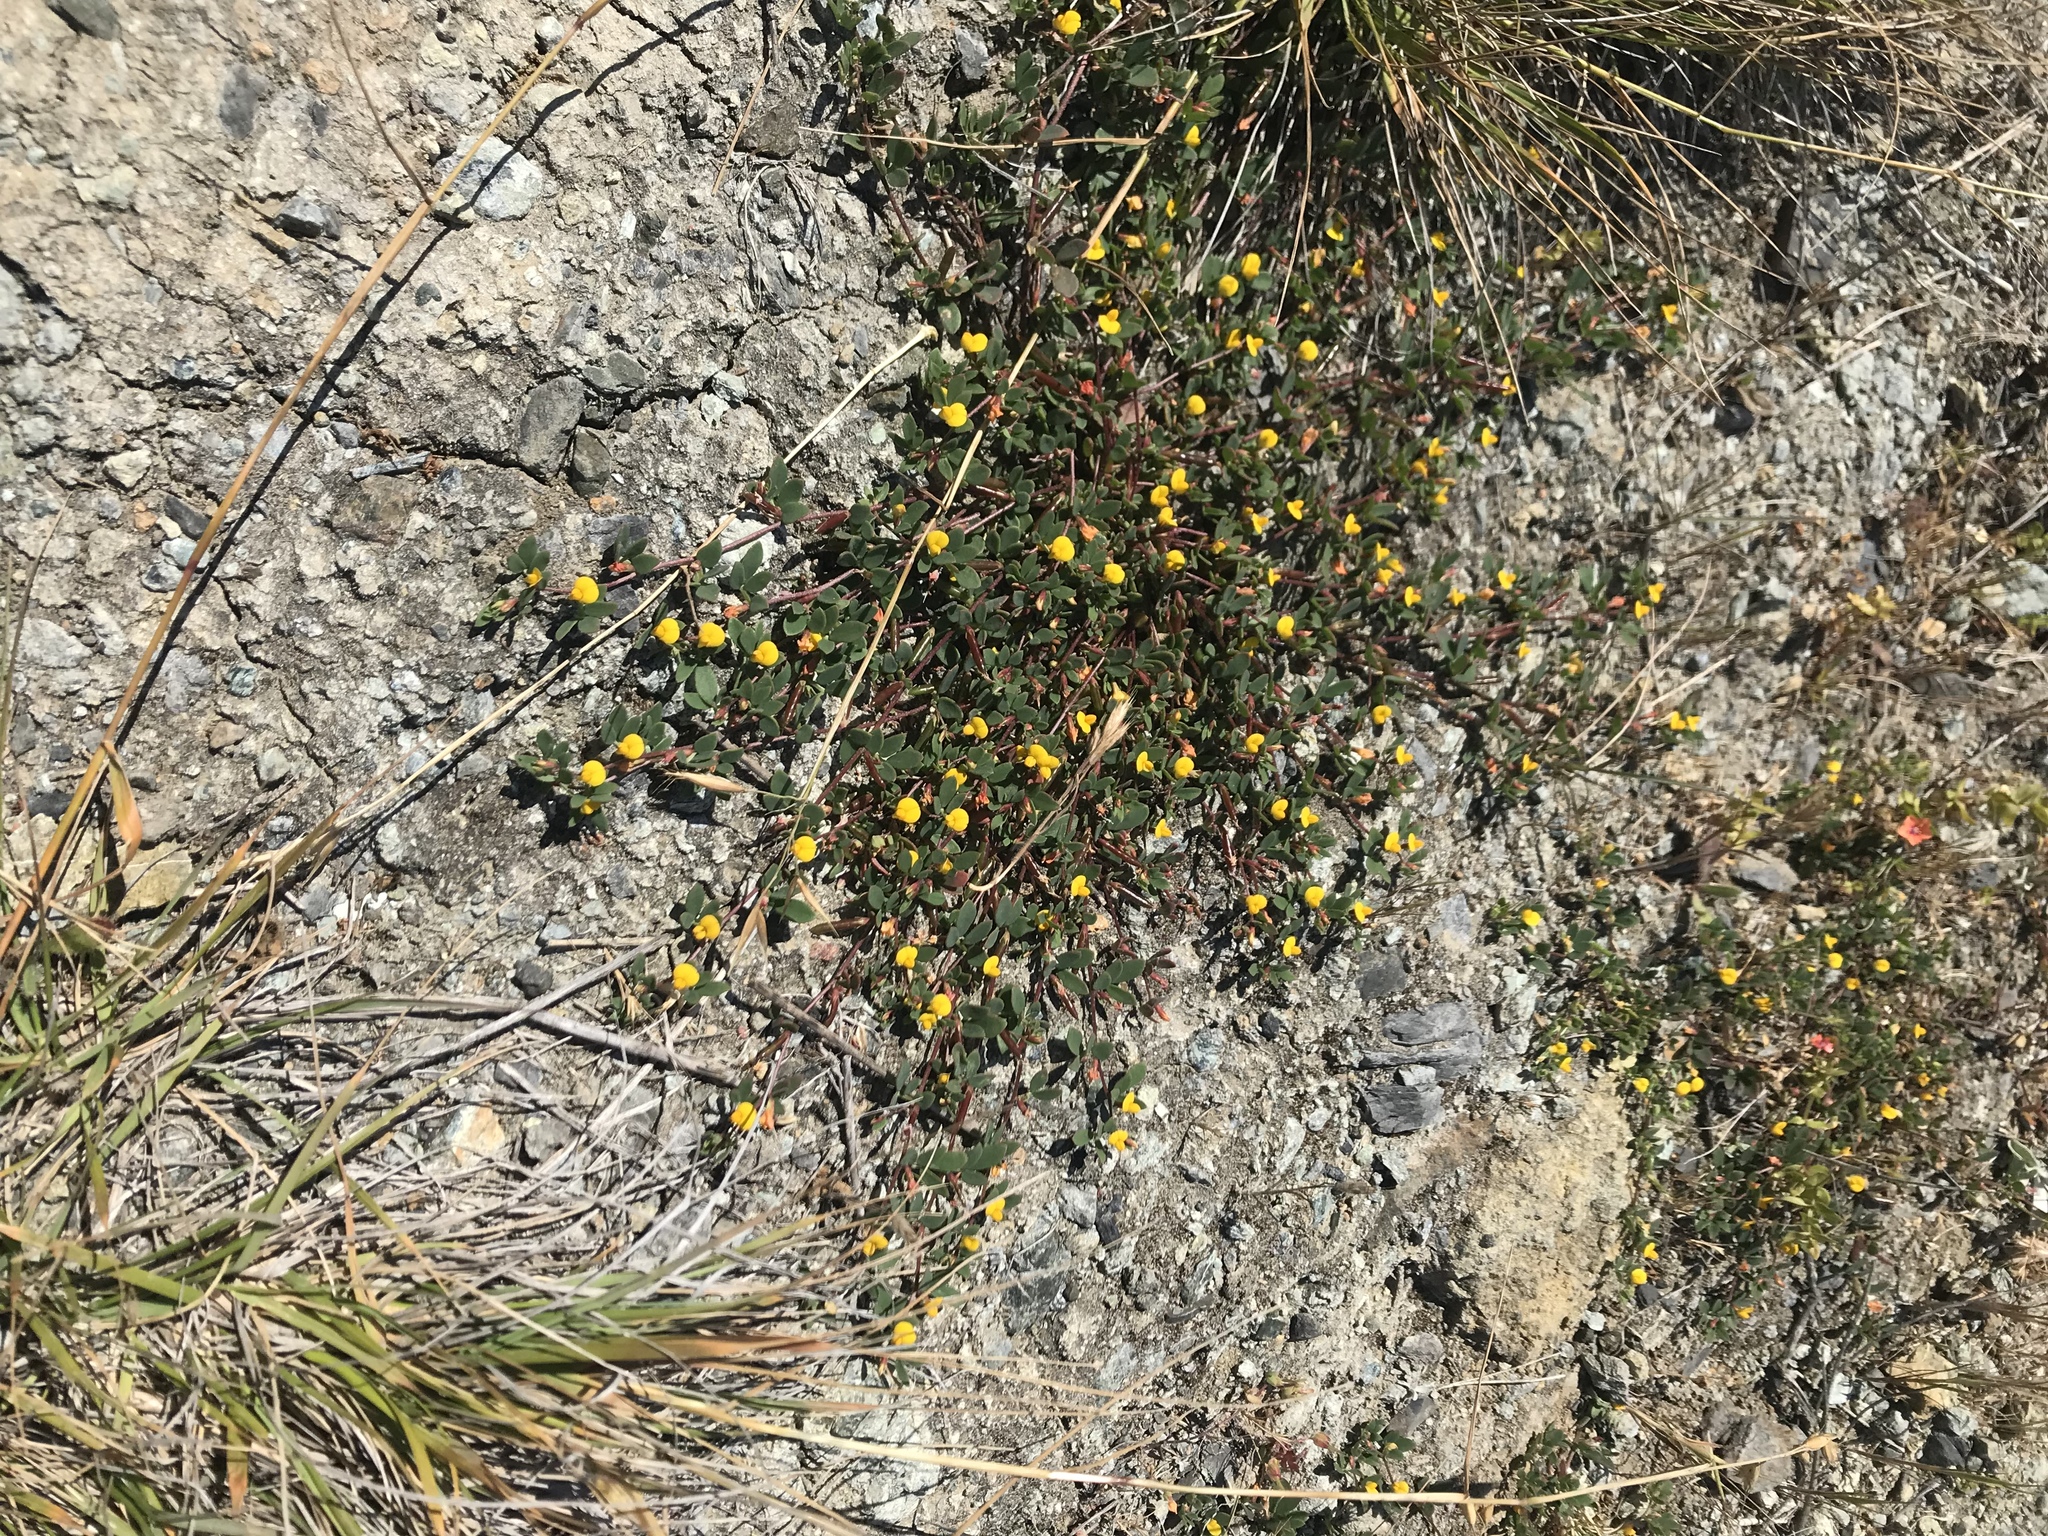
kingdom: Plantae
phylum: Tracheophyta
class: Magnoliopsida
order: Fabales
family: Fabaceae
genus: Acmispon
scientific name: Acmispon wrangelianus
